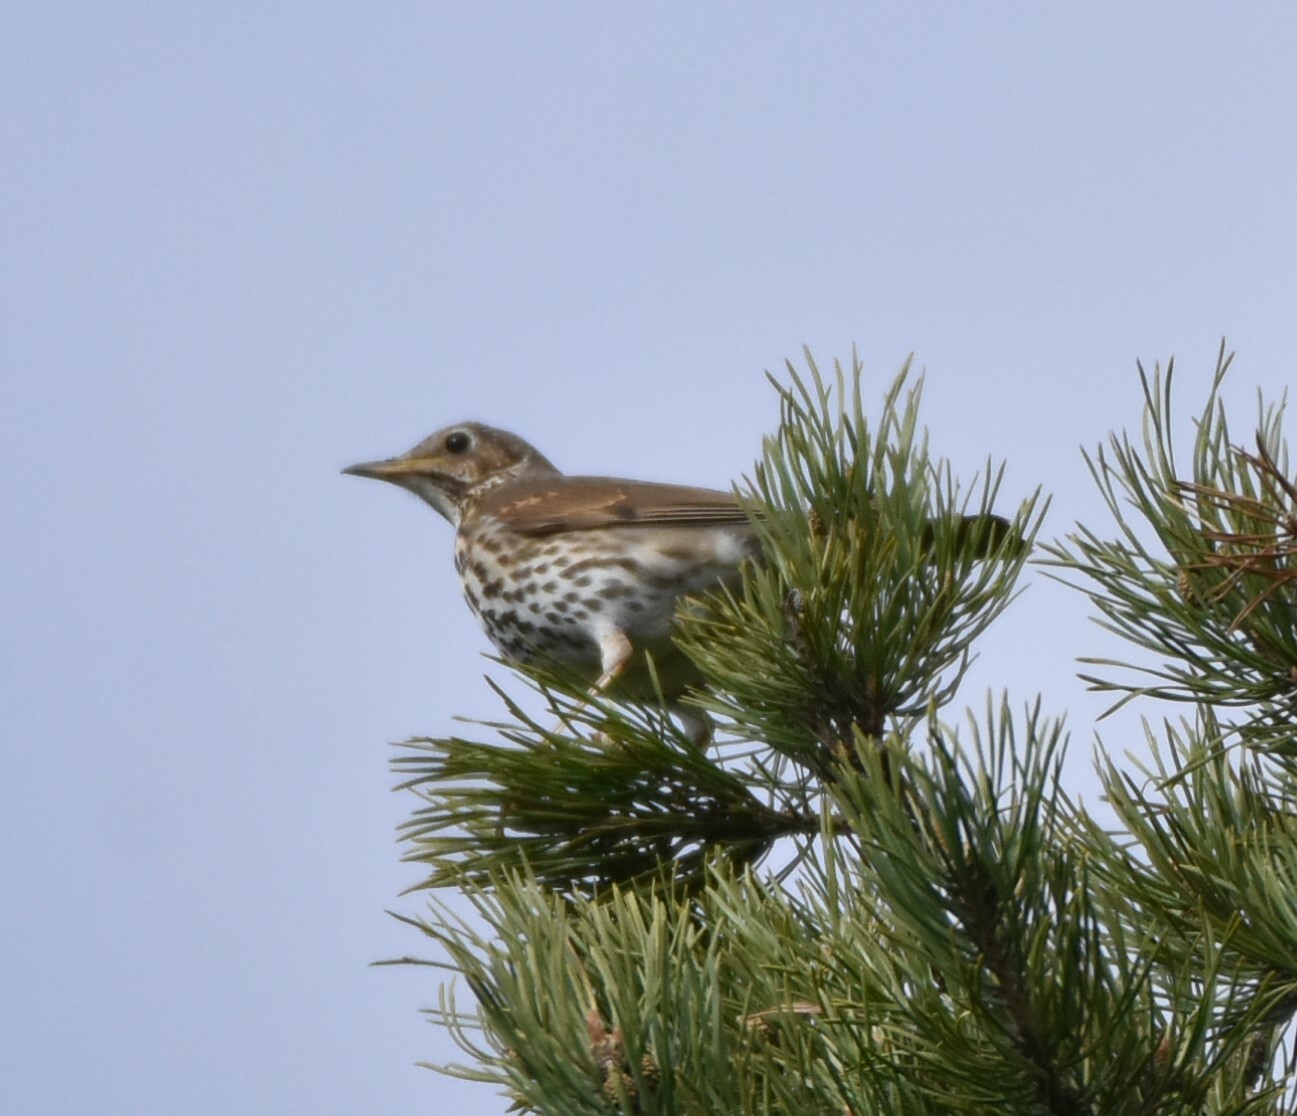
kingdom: Animalia
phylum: Chordata
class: Aves
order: Passeriformes
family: Turdidae
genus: Turdus
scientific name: Turdus philomelos
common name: Song thrush
